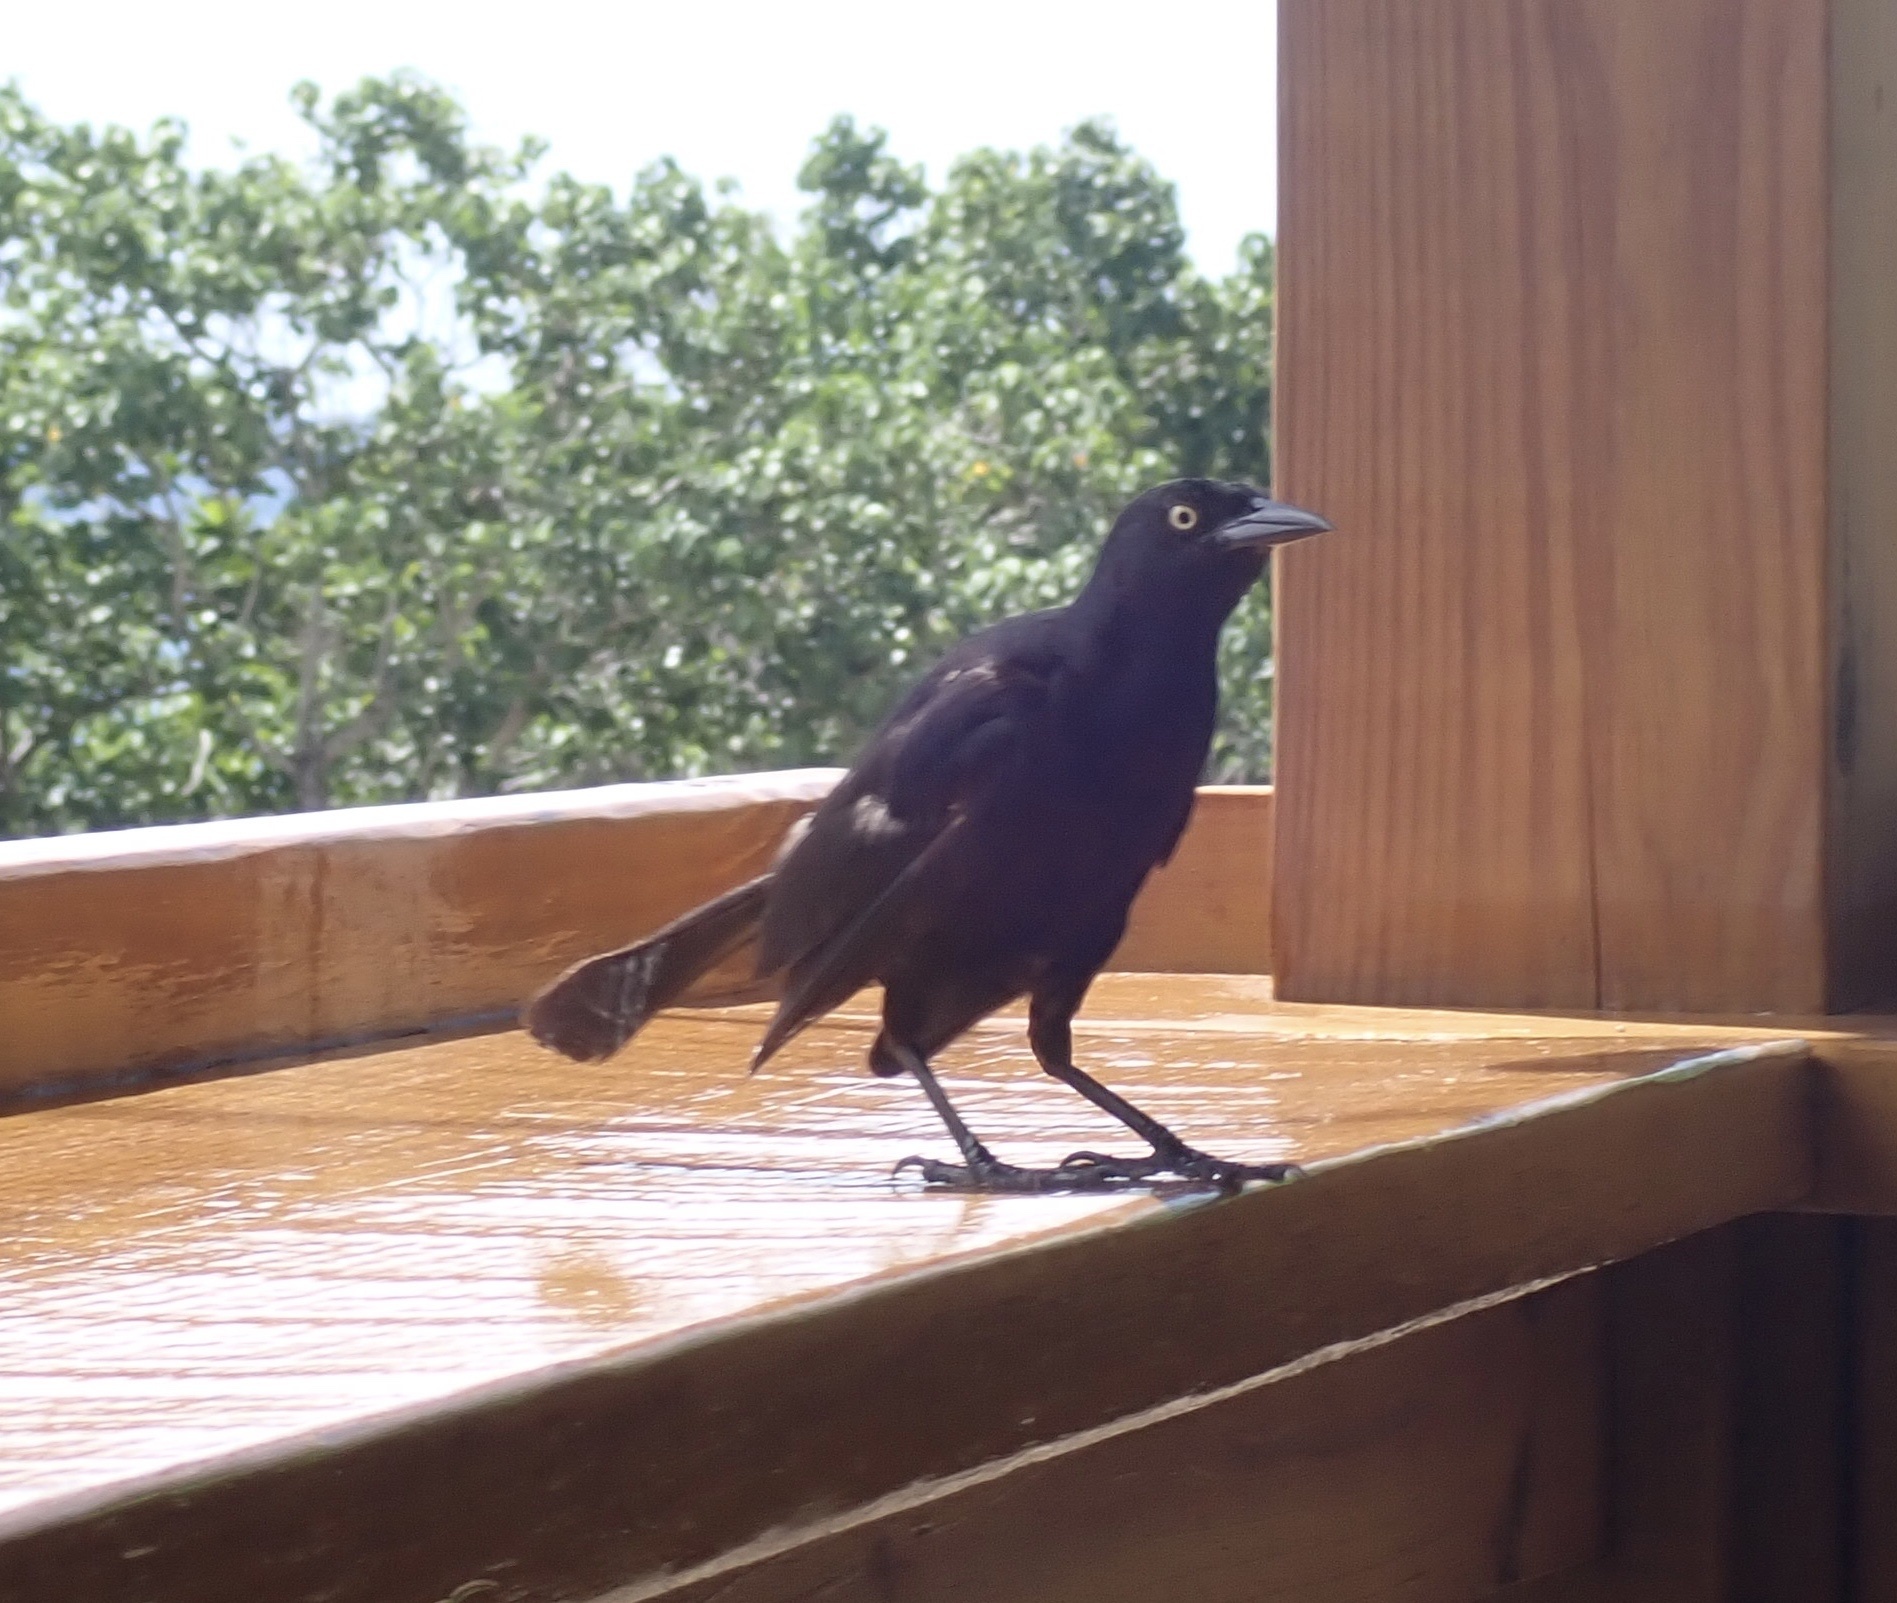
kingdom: Animalia
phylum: Chordata
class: Aves
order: Passeriformes
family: Icteridae
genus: Quiscalus
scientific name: Quiscalus niger
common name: Greater antillean grackle
